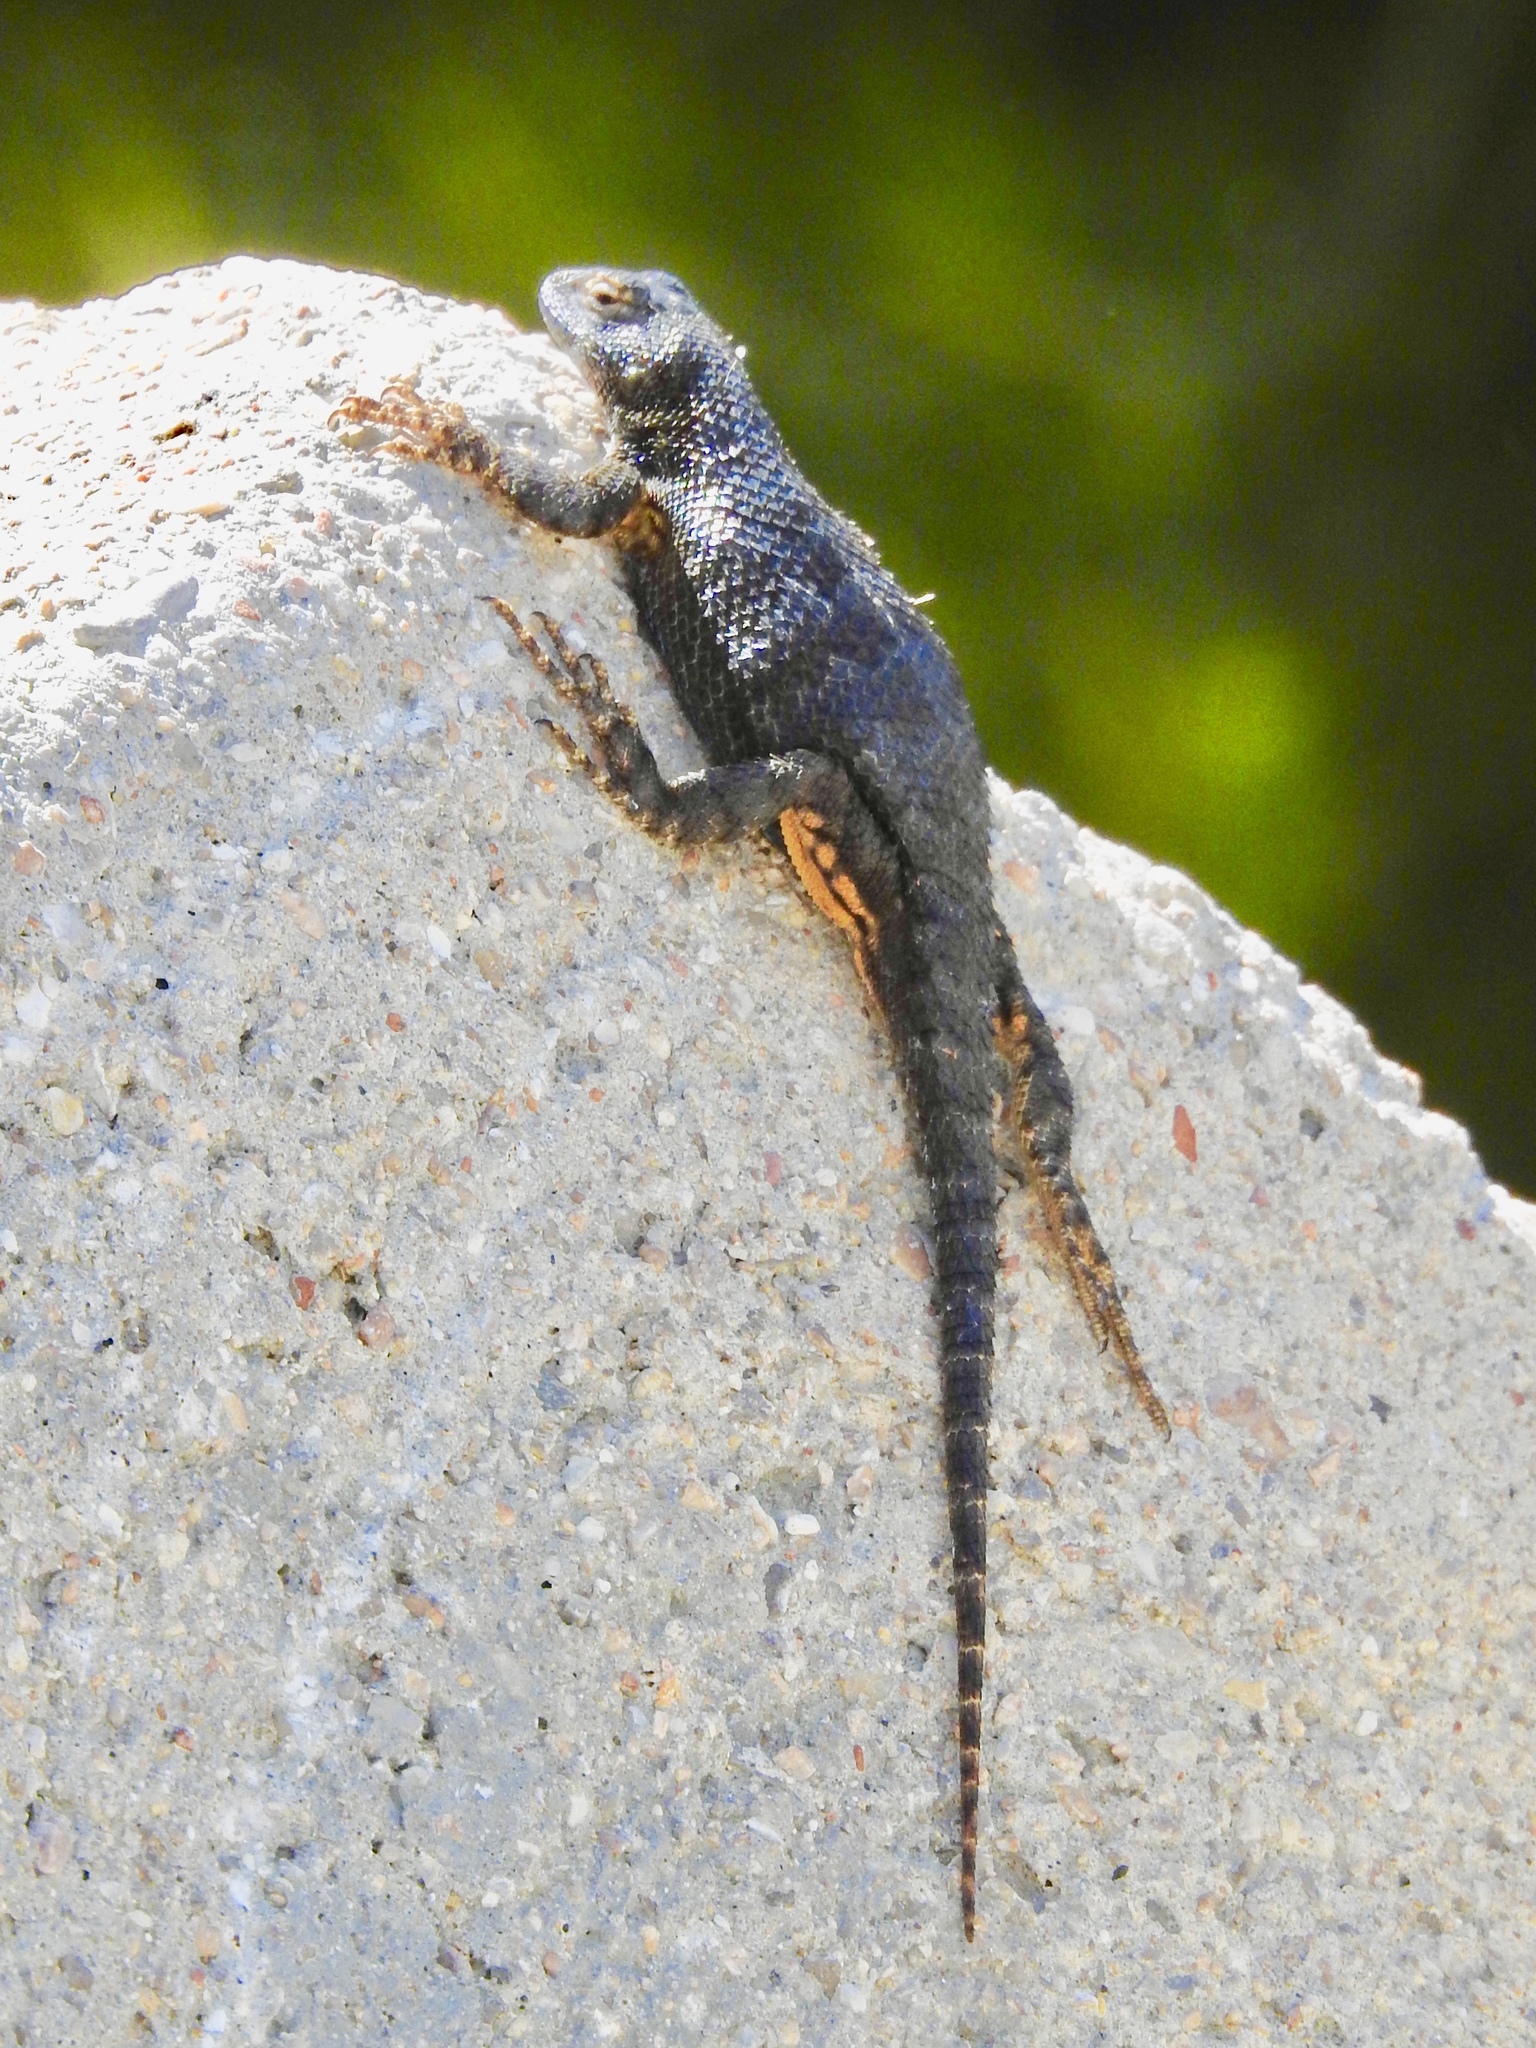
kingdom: Animalia
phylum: Chordata
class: Squamata
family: Phrynosomatidae
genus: Sceloporus
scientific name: Sceloporus occidentalis
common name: Western fence lizard
